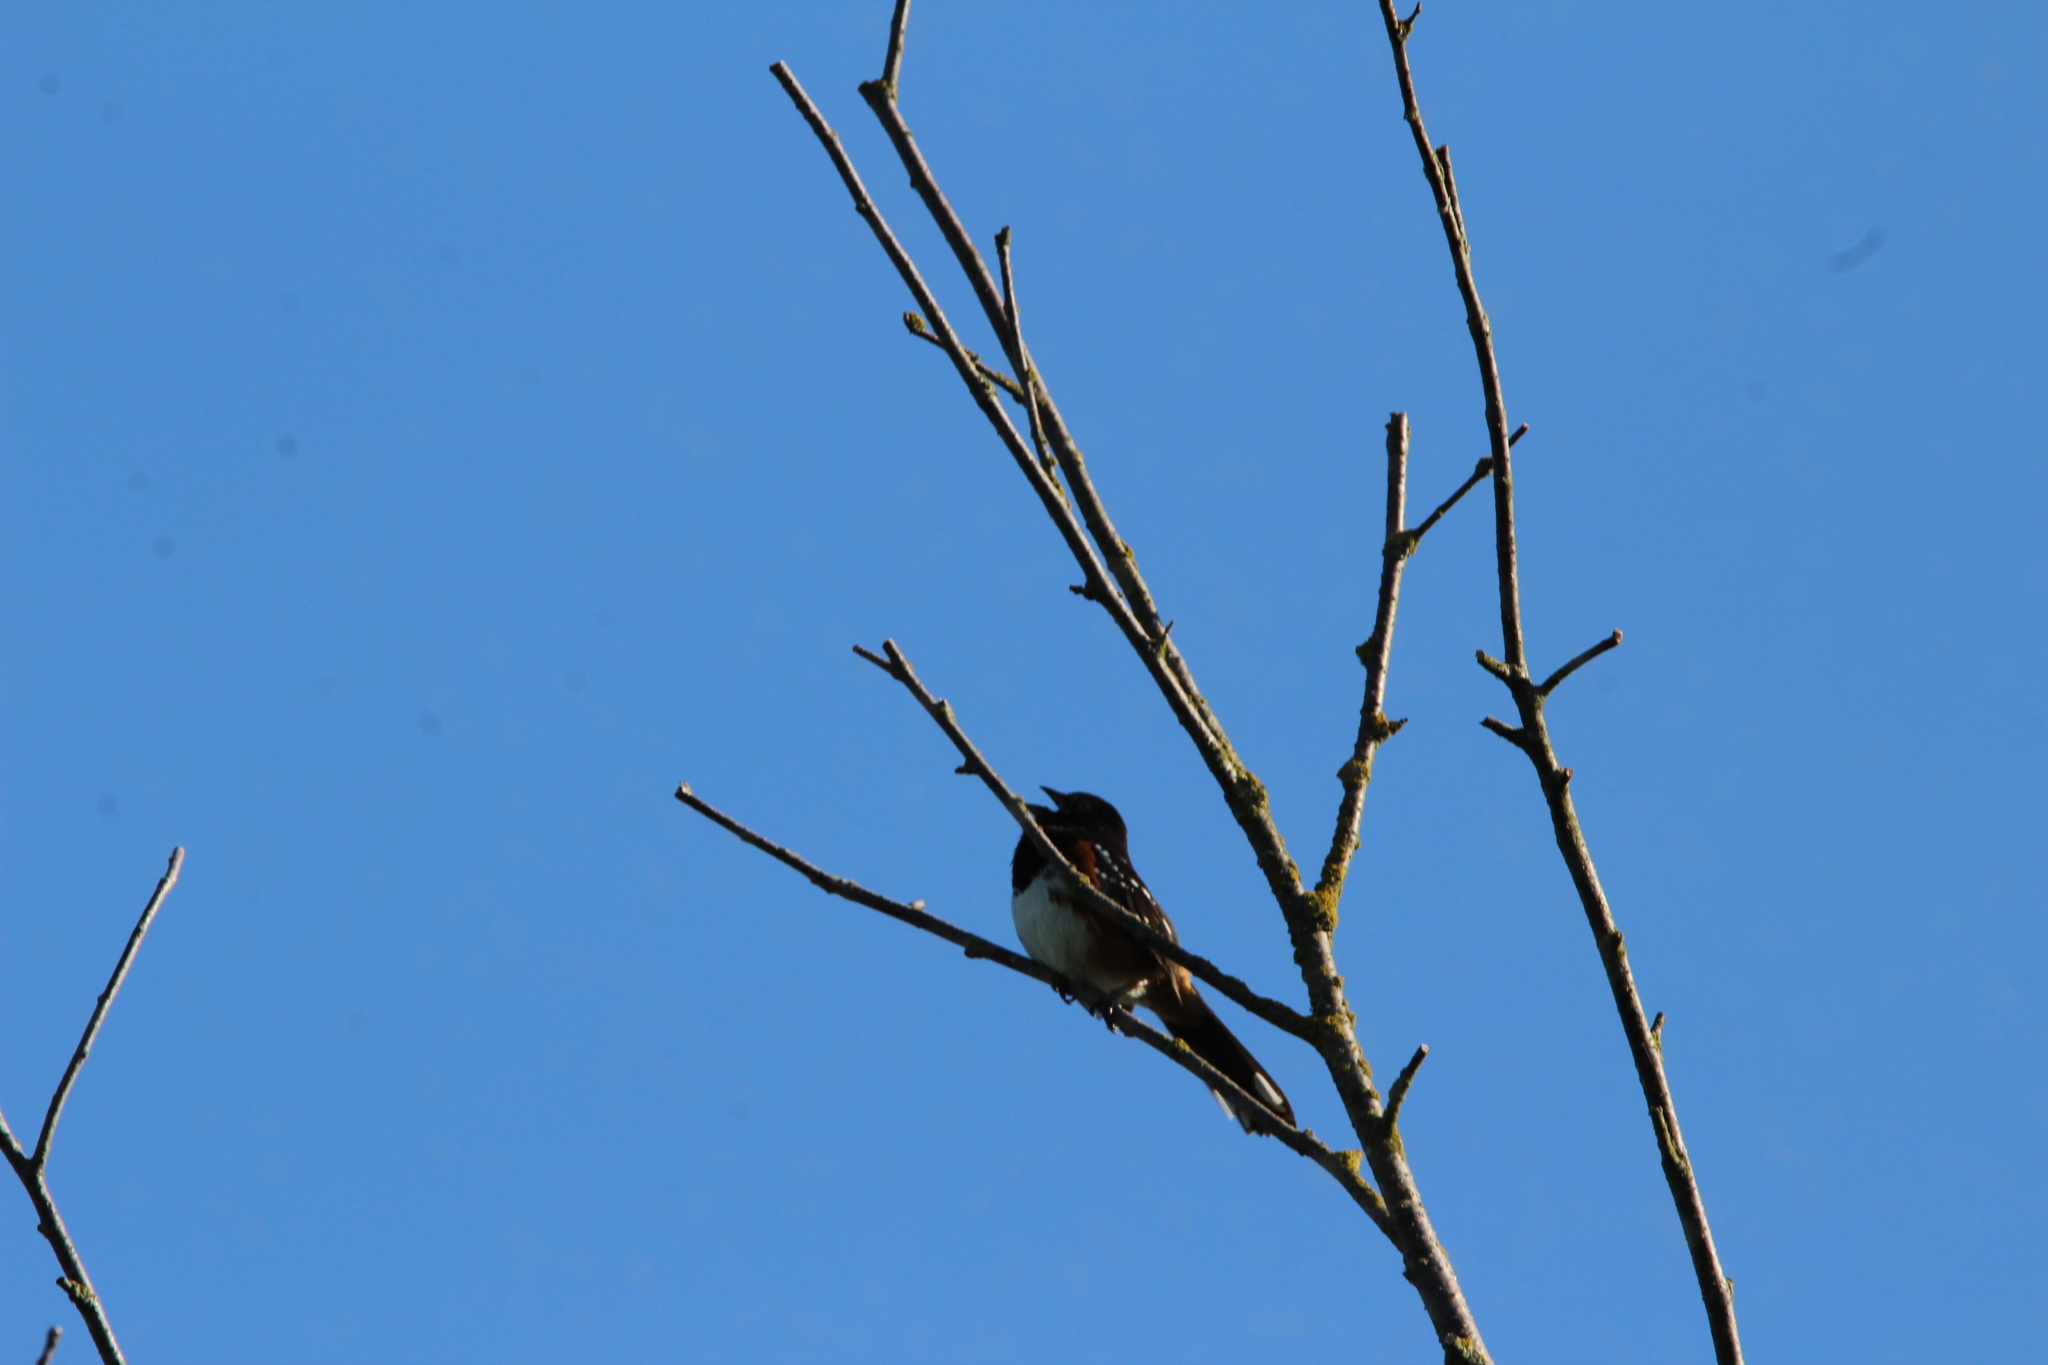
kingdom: Animalia
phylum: Chordata
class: Aves
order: Passeriformes
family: Passerellidae
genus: Pipilo
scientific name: Pipilo maculatus
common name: Spotted towhee
